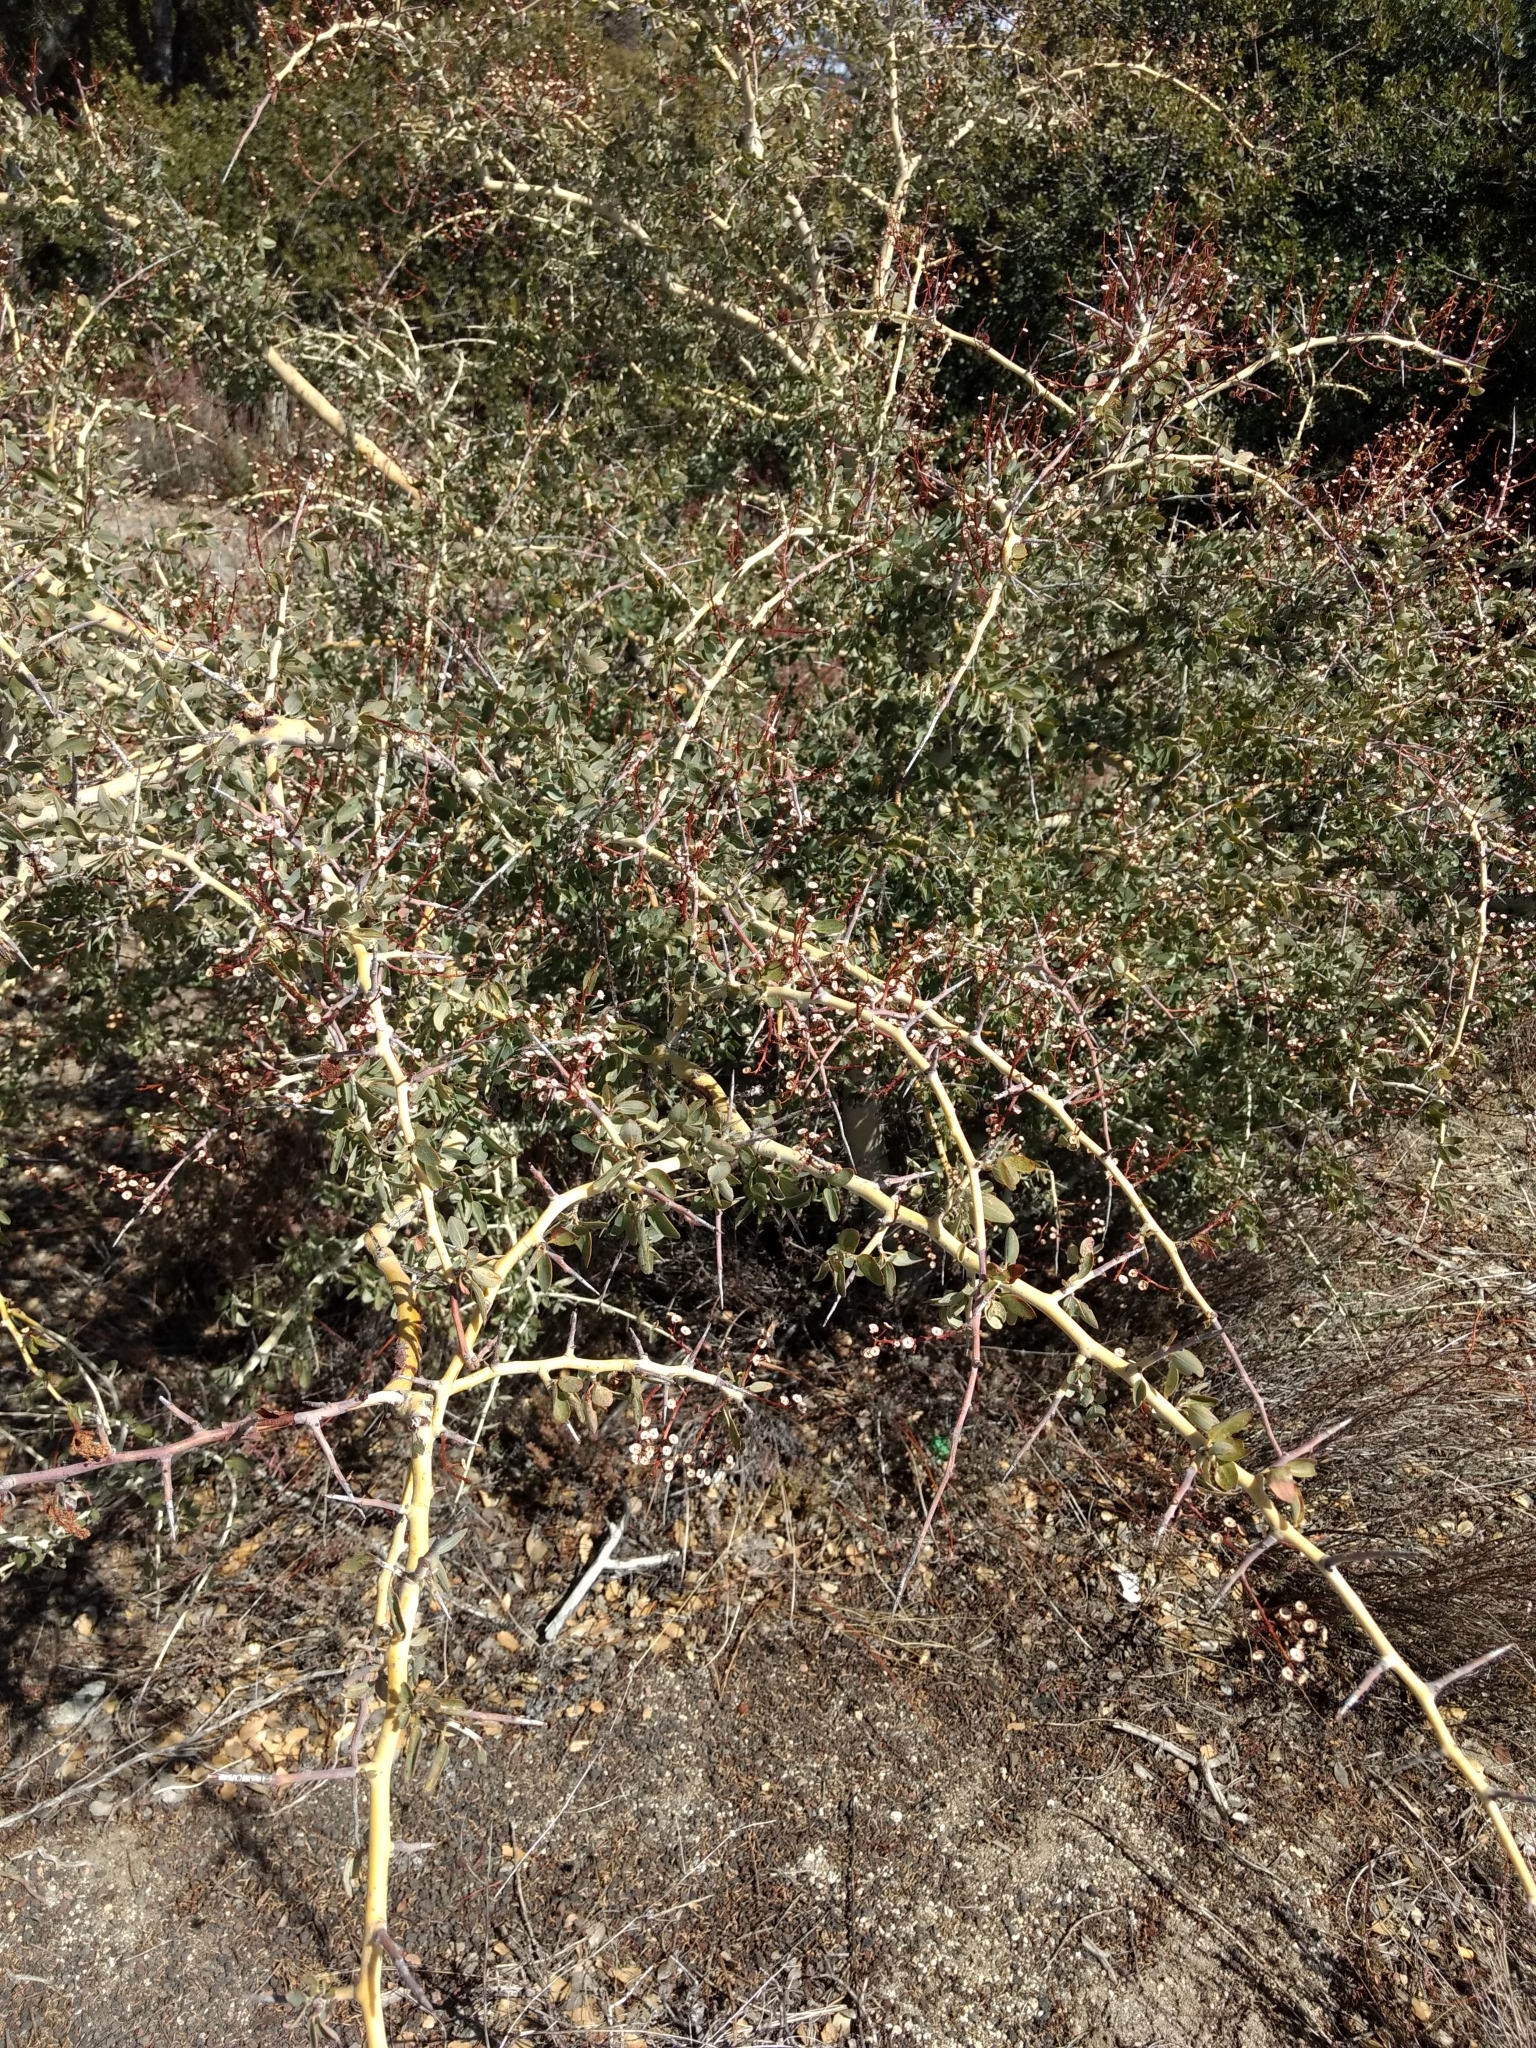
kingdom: Plantae
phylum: Tracheophyta
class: Magnoliopsida
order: Rosales
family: Rhamnaceae
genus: Ceanothus
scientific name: Ceanothus leucodermis
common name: Chaparral whitethorn
